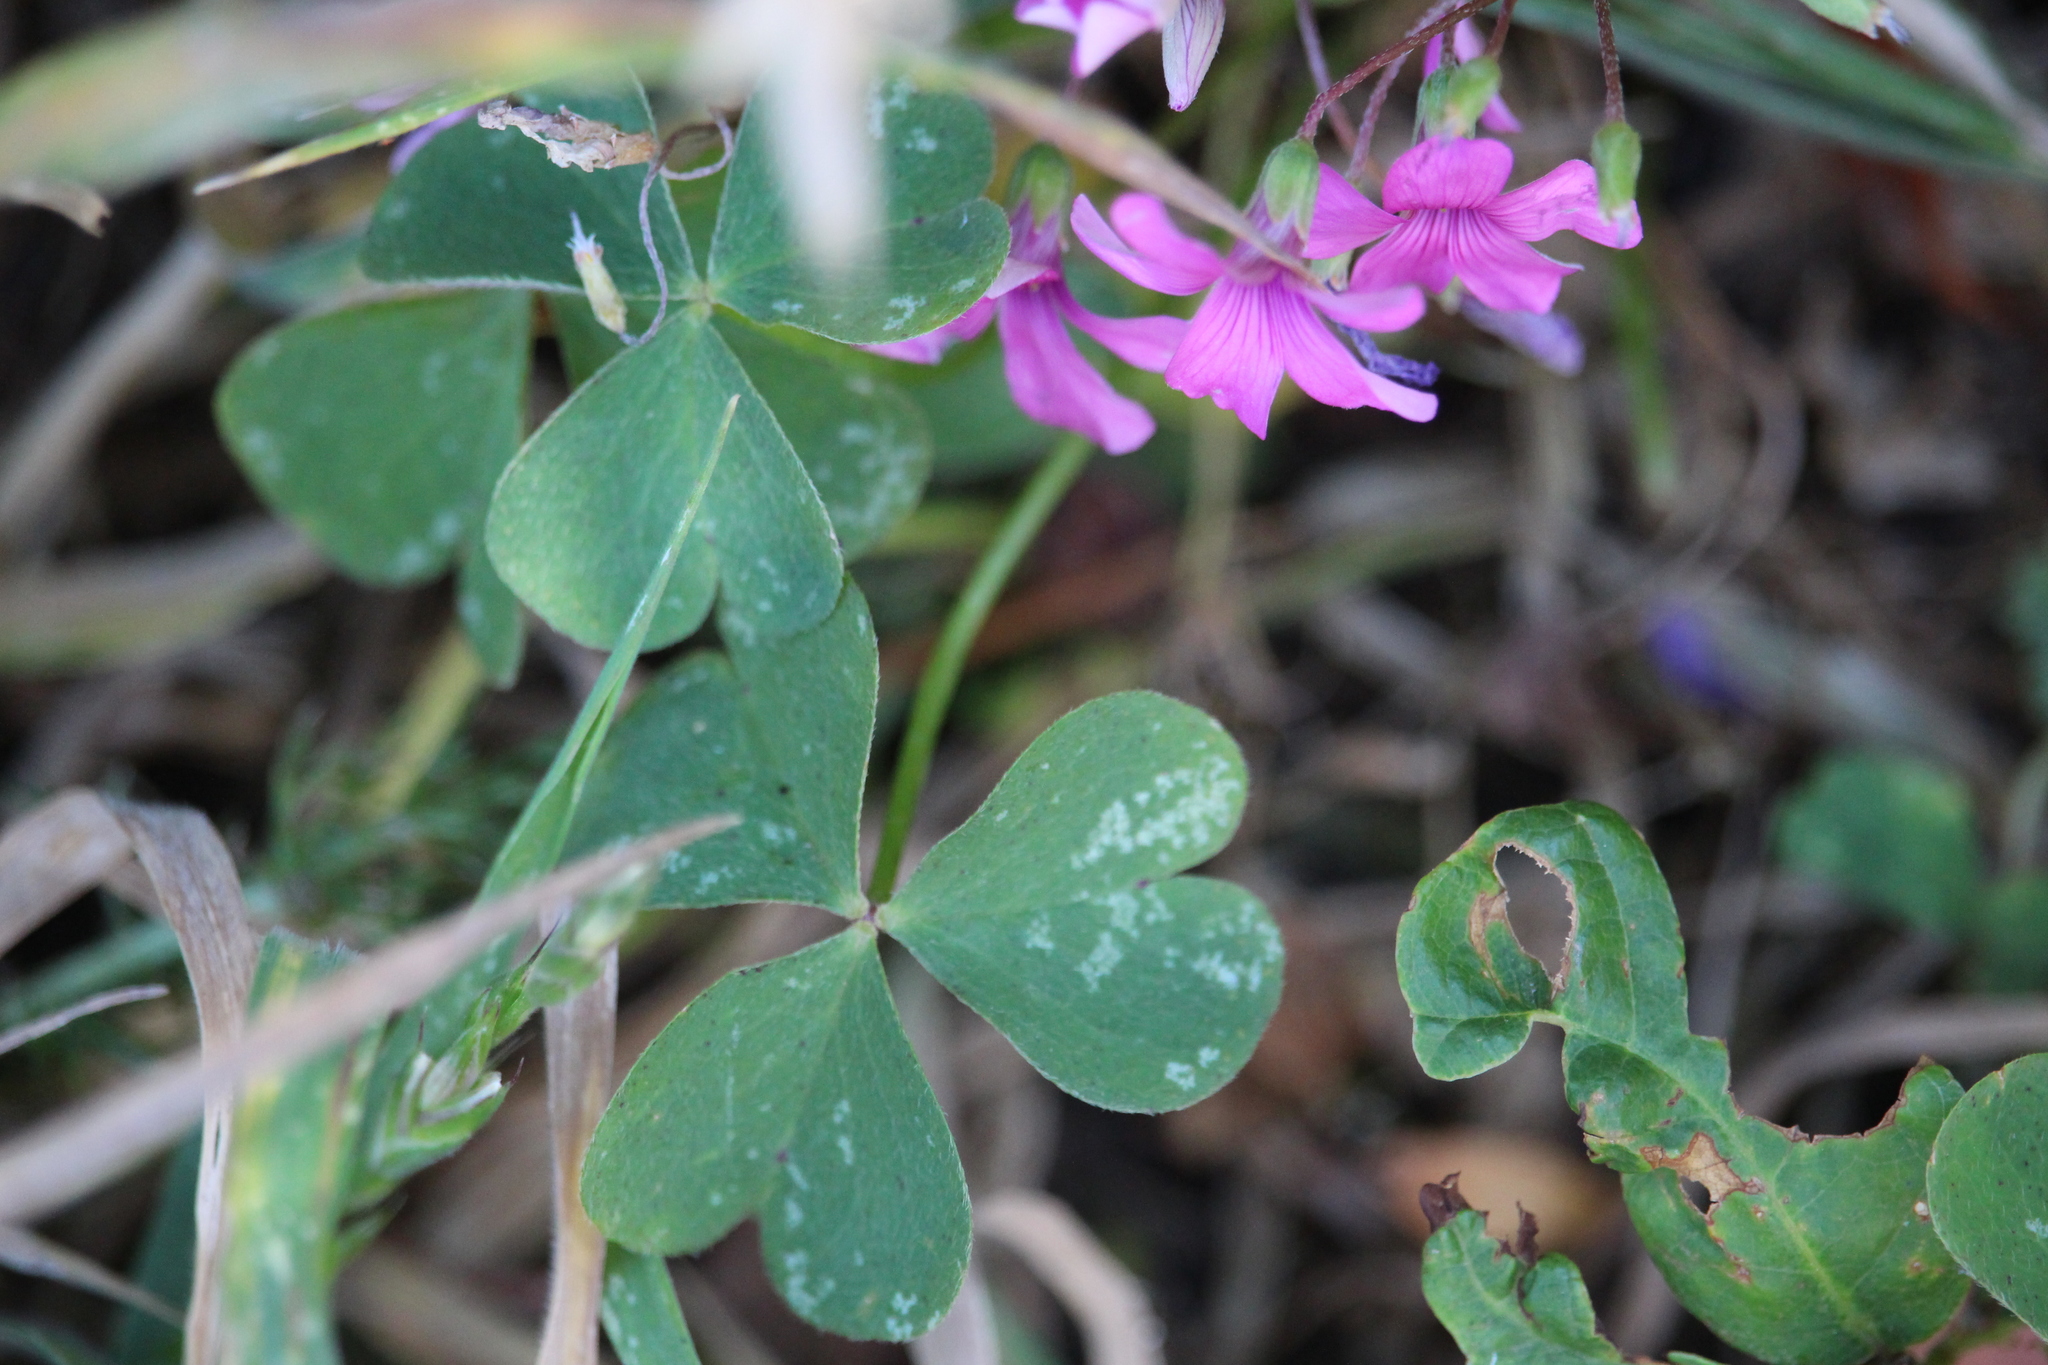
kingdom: Plantae
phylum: Tracheophyta
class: Magnoliopsida
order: Oxalidales
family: Oxalidaceae
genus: Oxalis
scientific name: Oxalis articulata
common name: Pink-sorrel
